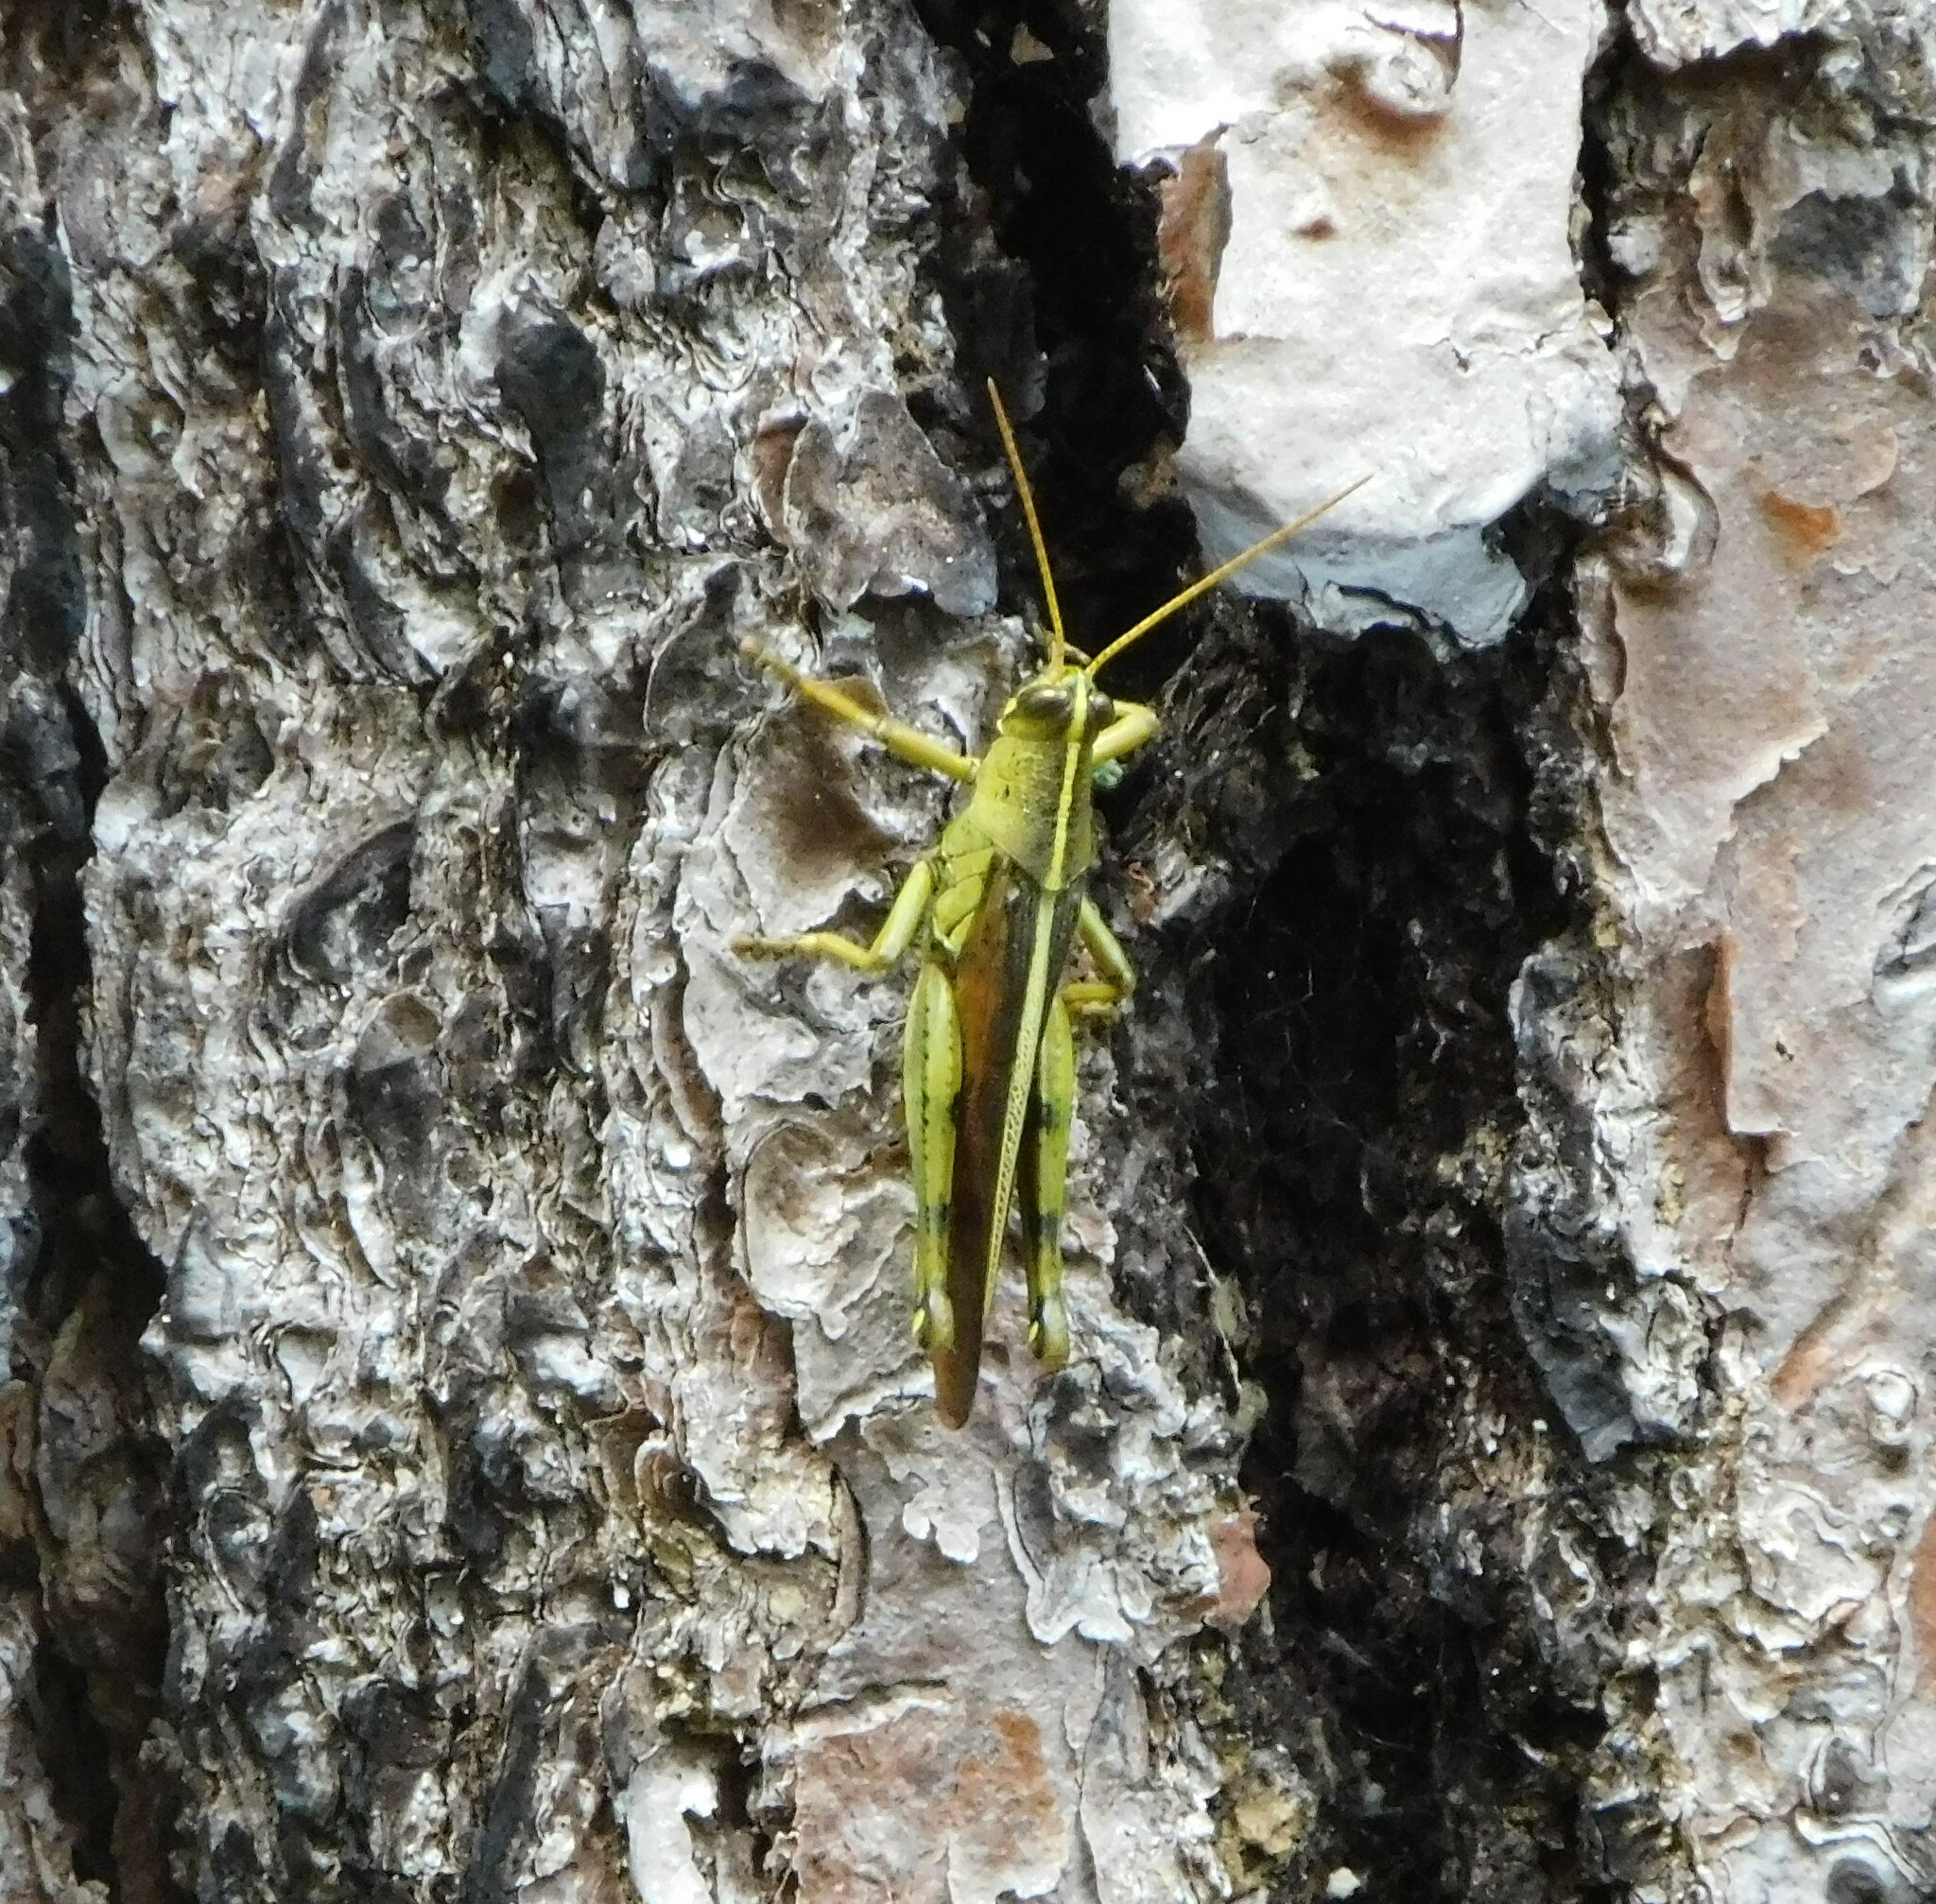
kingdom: Animalia
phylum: Arthropoda
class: Insecta
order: Orthoptera
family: Acrididae
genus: Schistocerca
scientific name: Schistocerca alutacea
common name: Leather-colored bird locust
